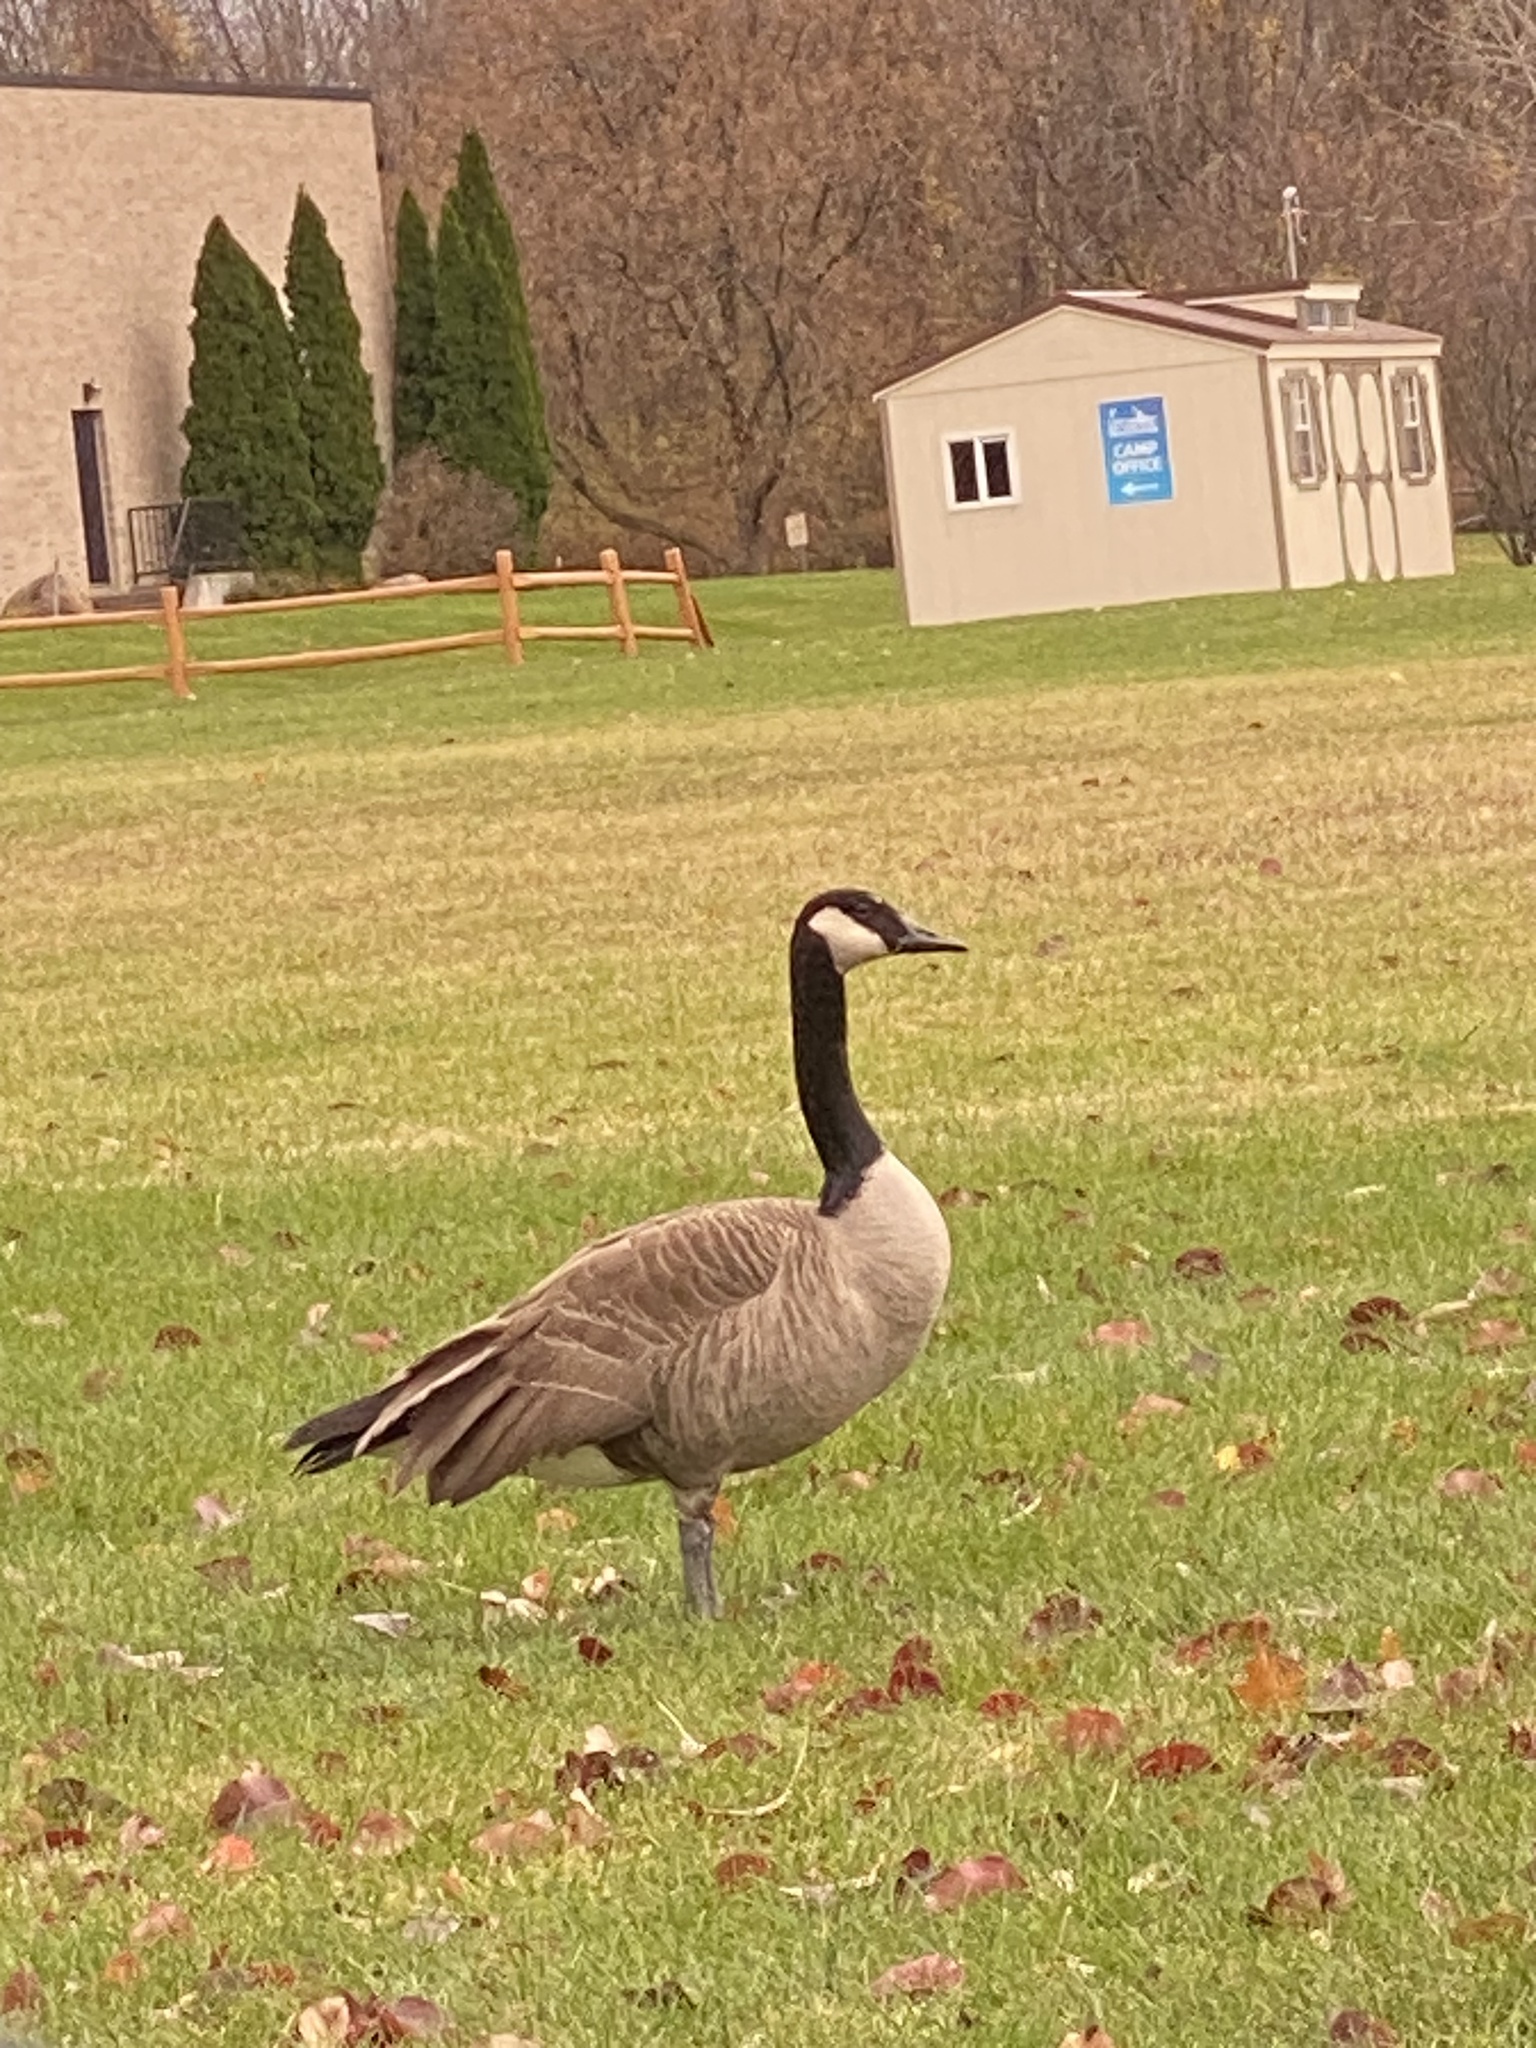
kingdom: Animalia
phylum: Chordata
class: Aves
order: Anseriformes
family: Anatidae
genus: Branta
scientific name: Branta canadensis
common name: Canada goose
